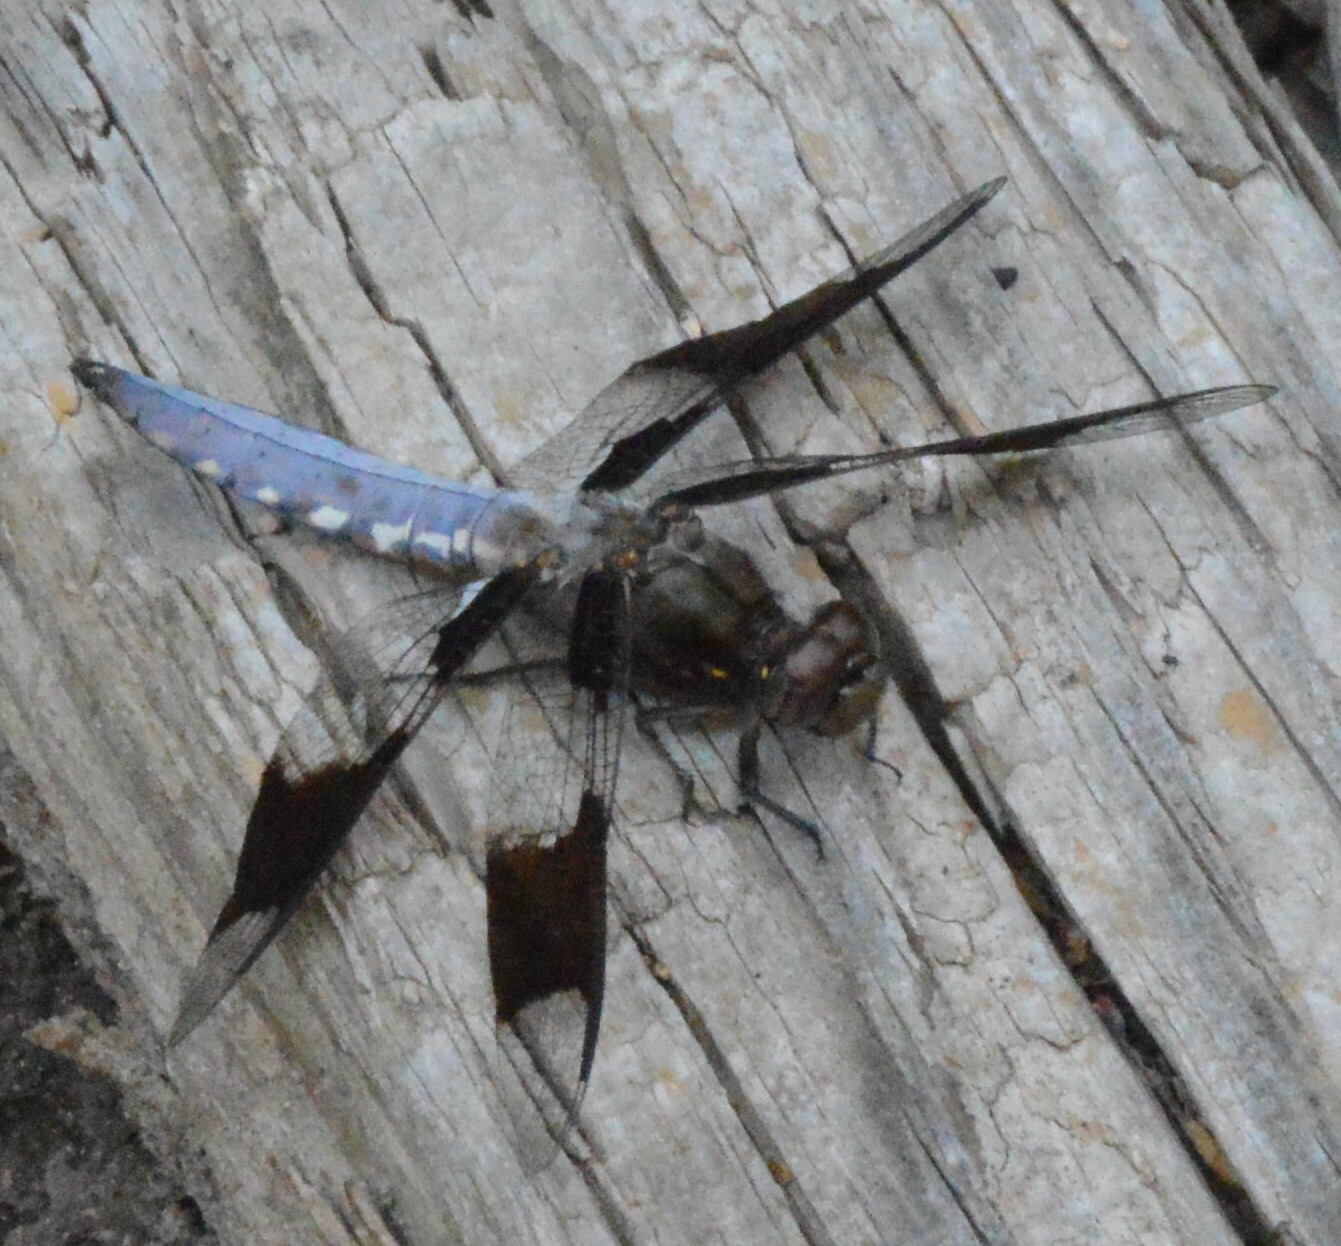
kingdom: Animalia
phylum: Arthropoda
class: Insecta
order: Odonata
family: Libellulidae
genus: Plathemis
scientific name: Plathemis lydia
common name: Common whitetail
